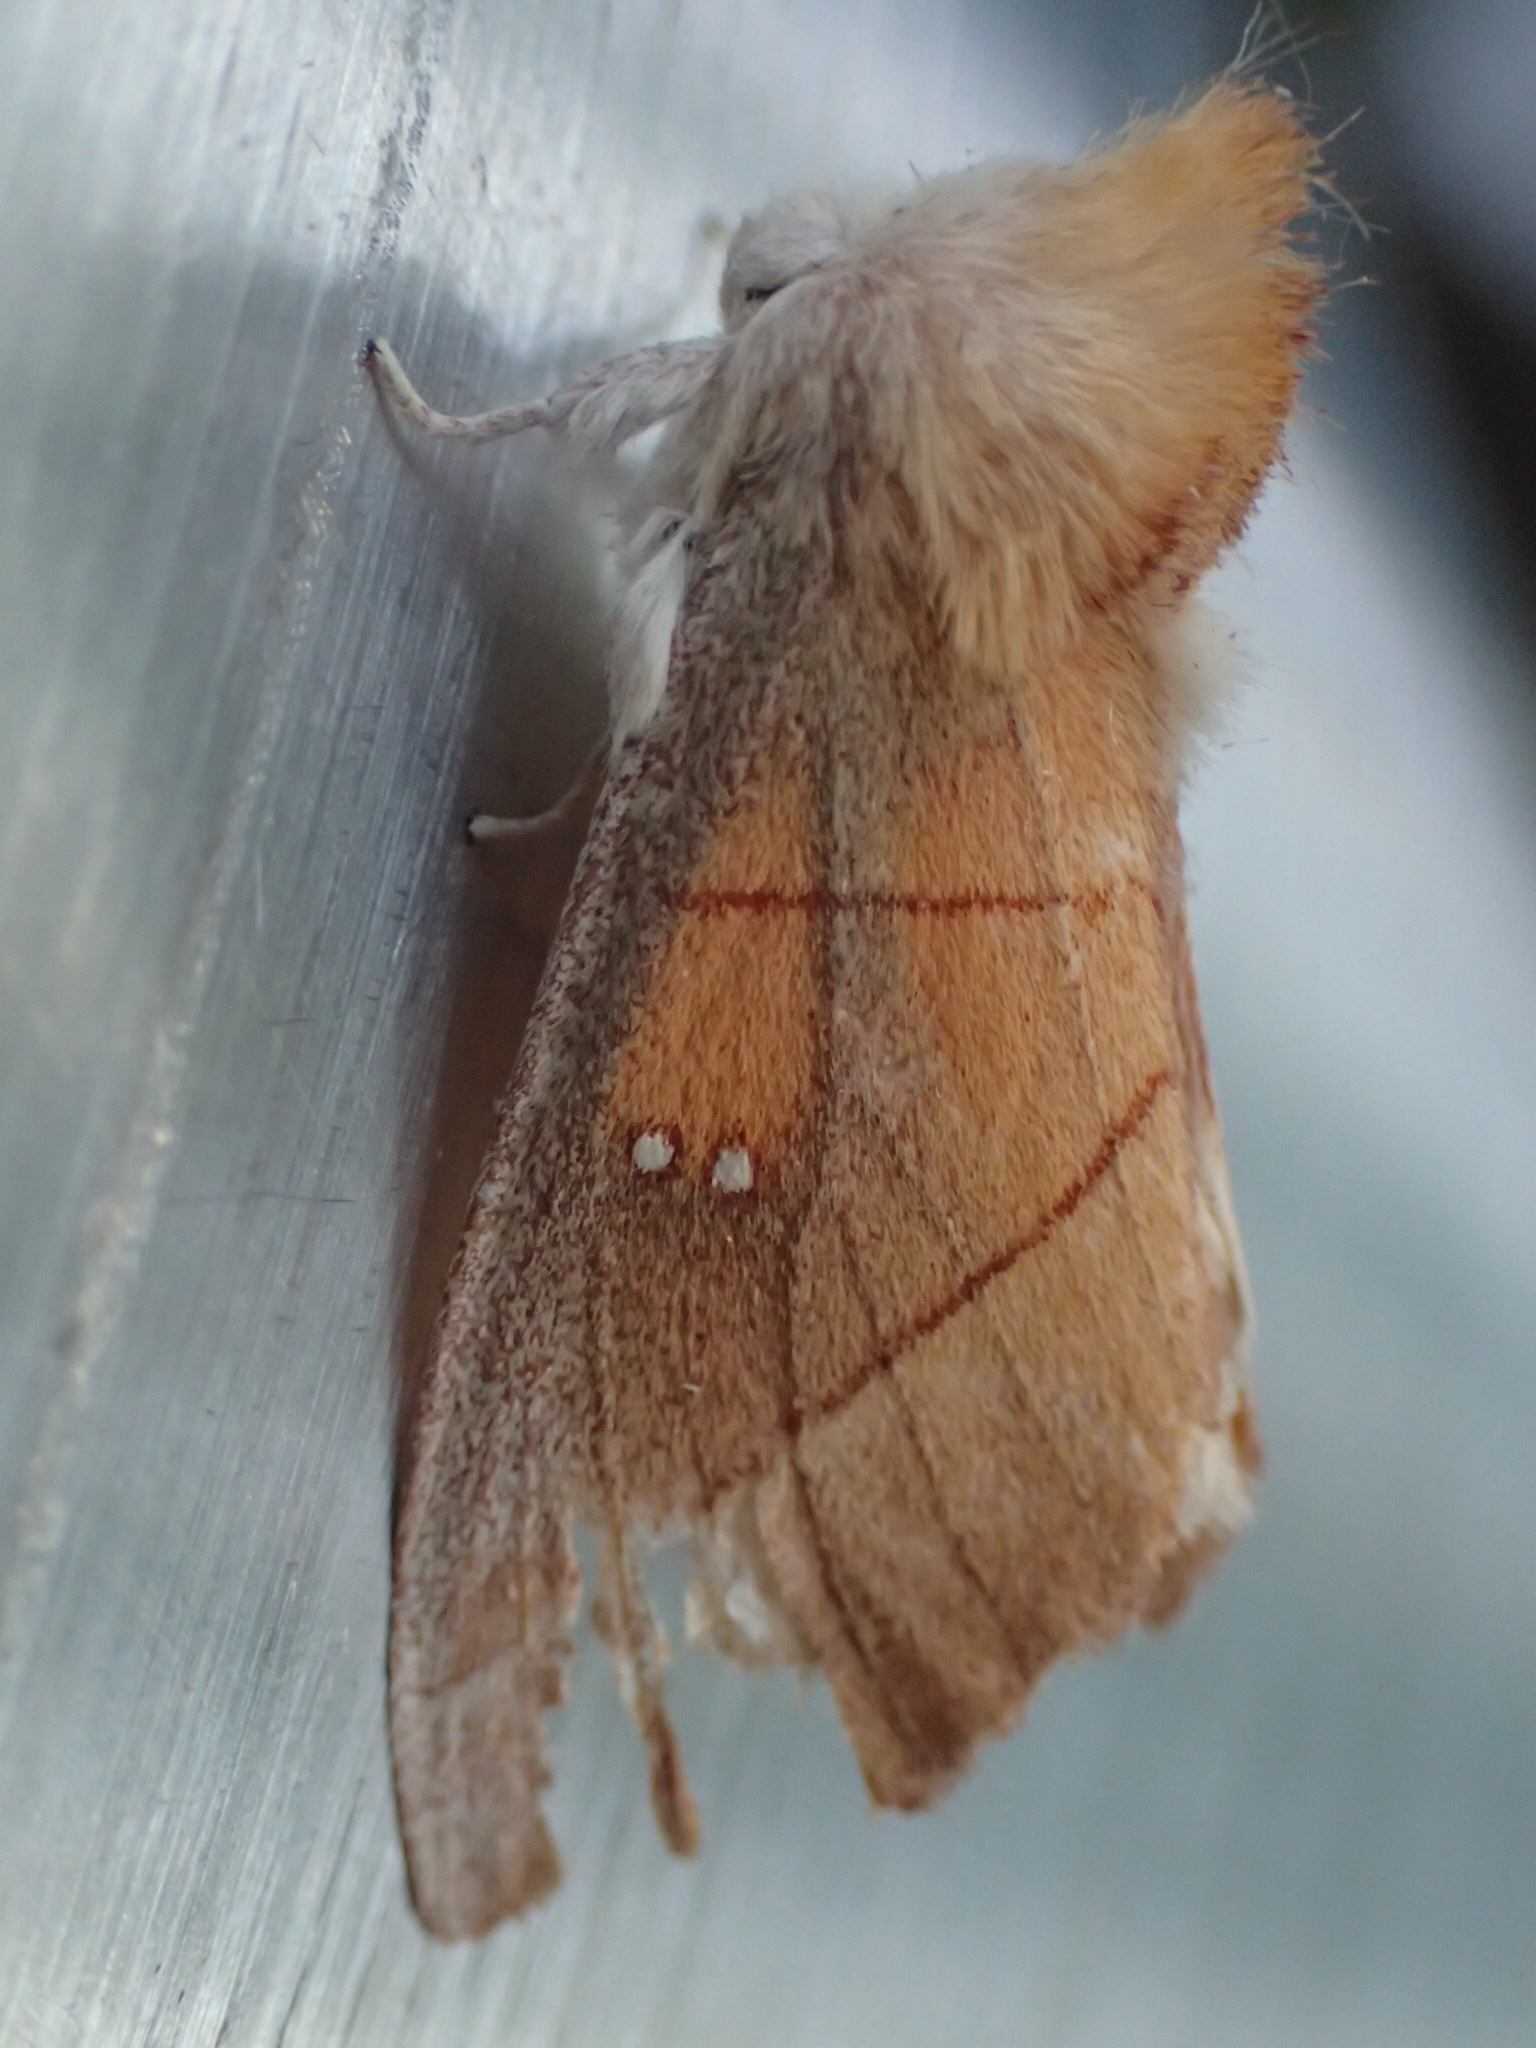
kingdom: Animalia
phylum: Arthropoda
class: Insecta
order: Lepidoptera
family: Notodontidae
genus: Nadata
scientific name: Nadata gibbosa
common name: White-dotted prominent
